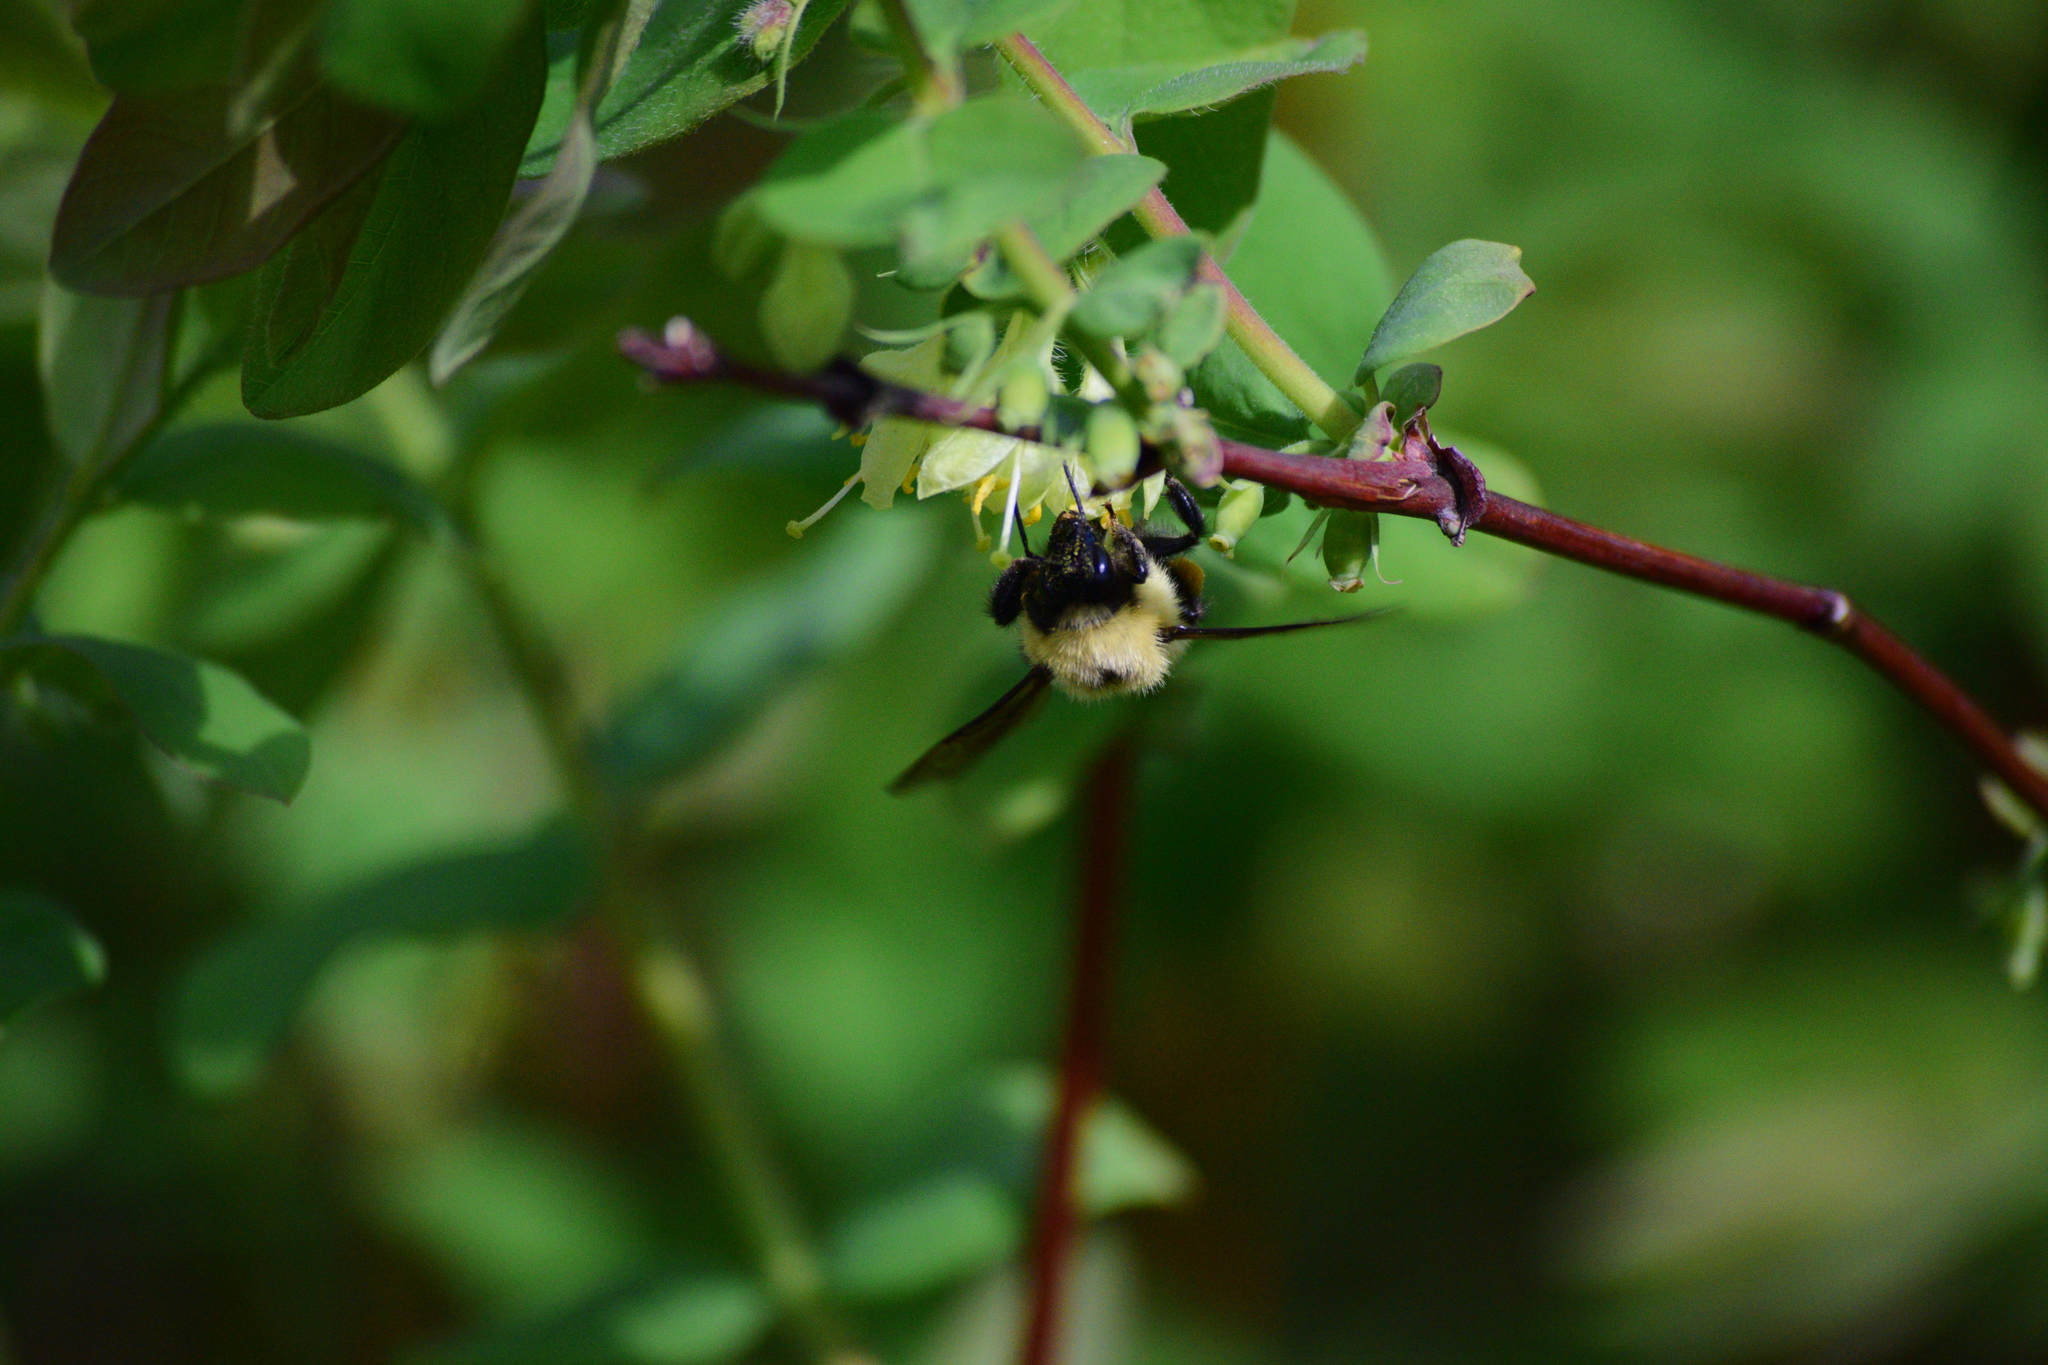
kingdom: Animalia
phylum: Arthropoda
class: Insecta
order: Hymenoptera
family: Apidae
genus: Bombus
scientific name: Bombus bimaculatus
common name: Two-spotted bumble bee
